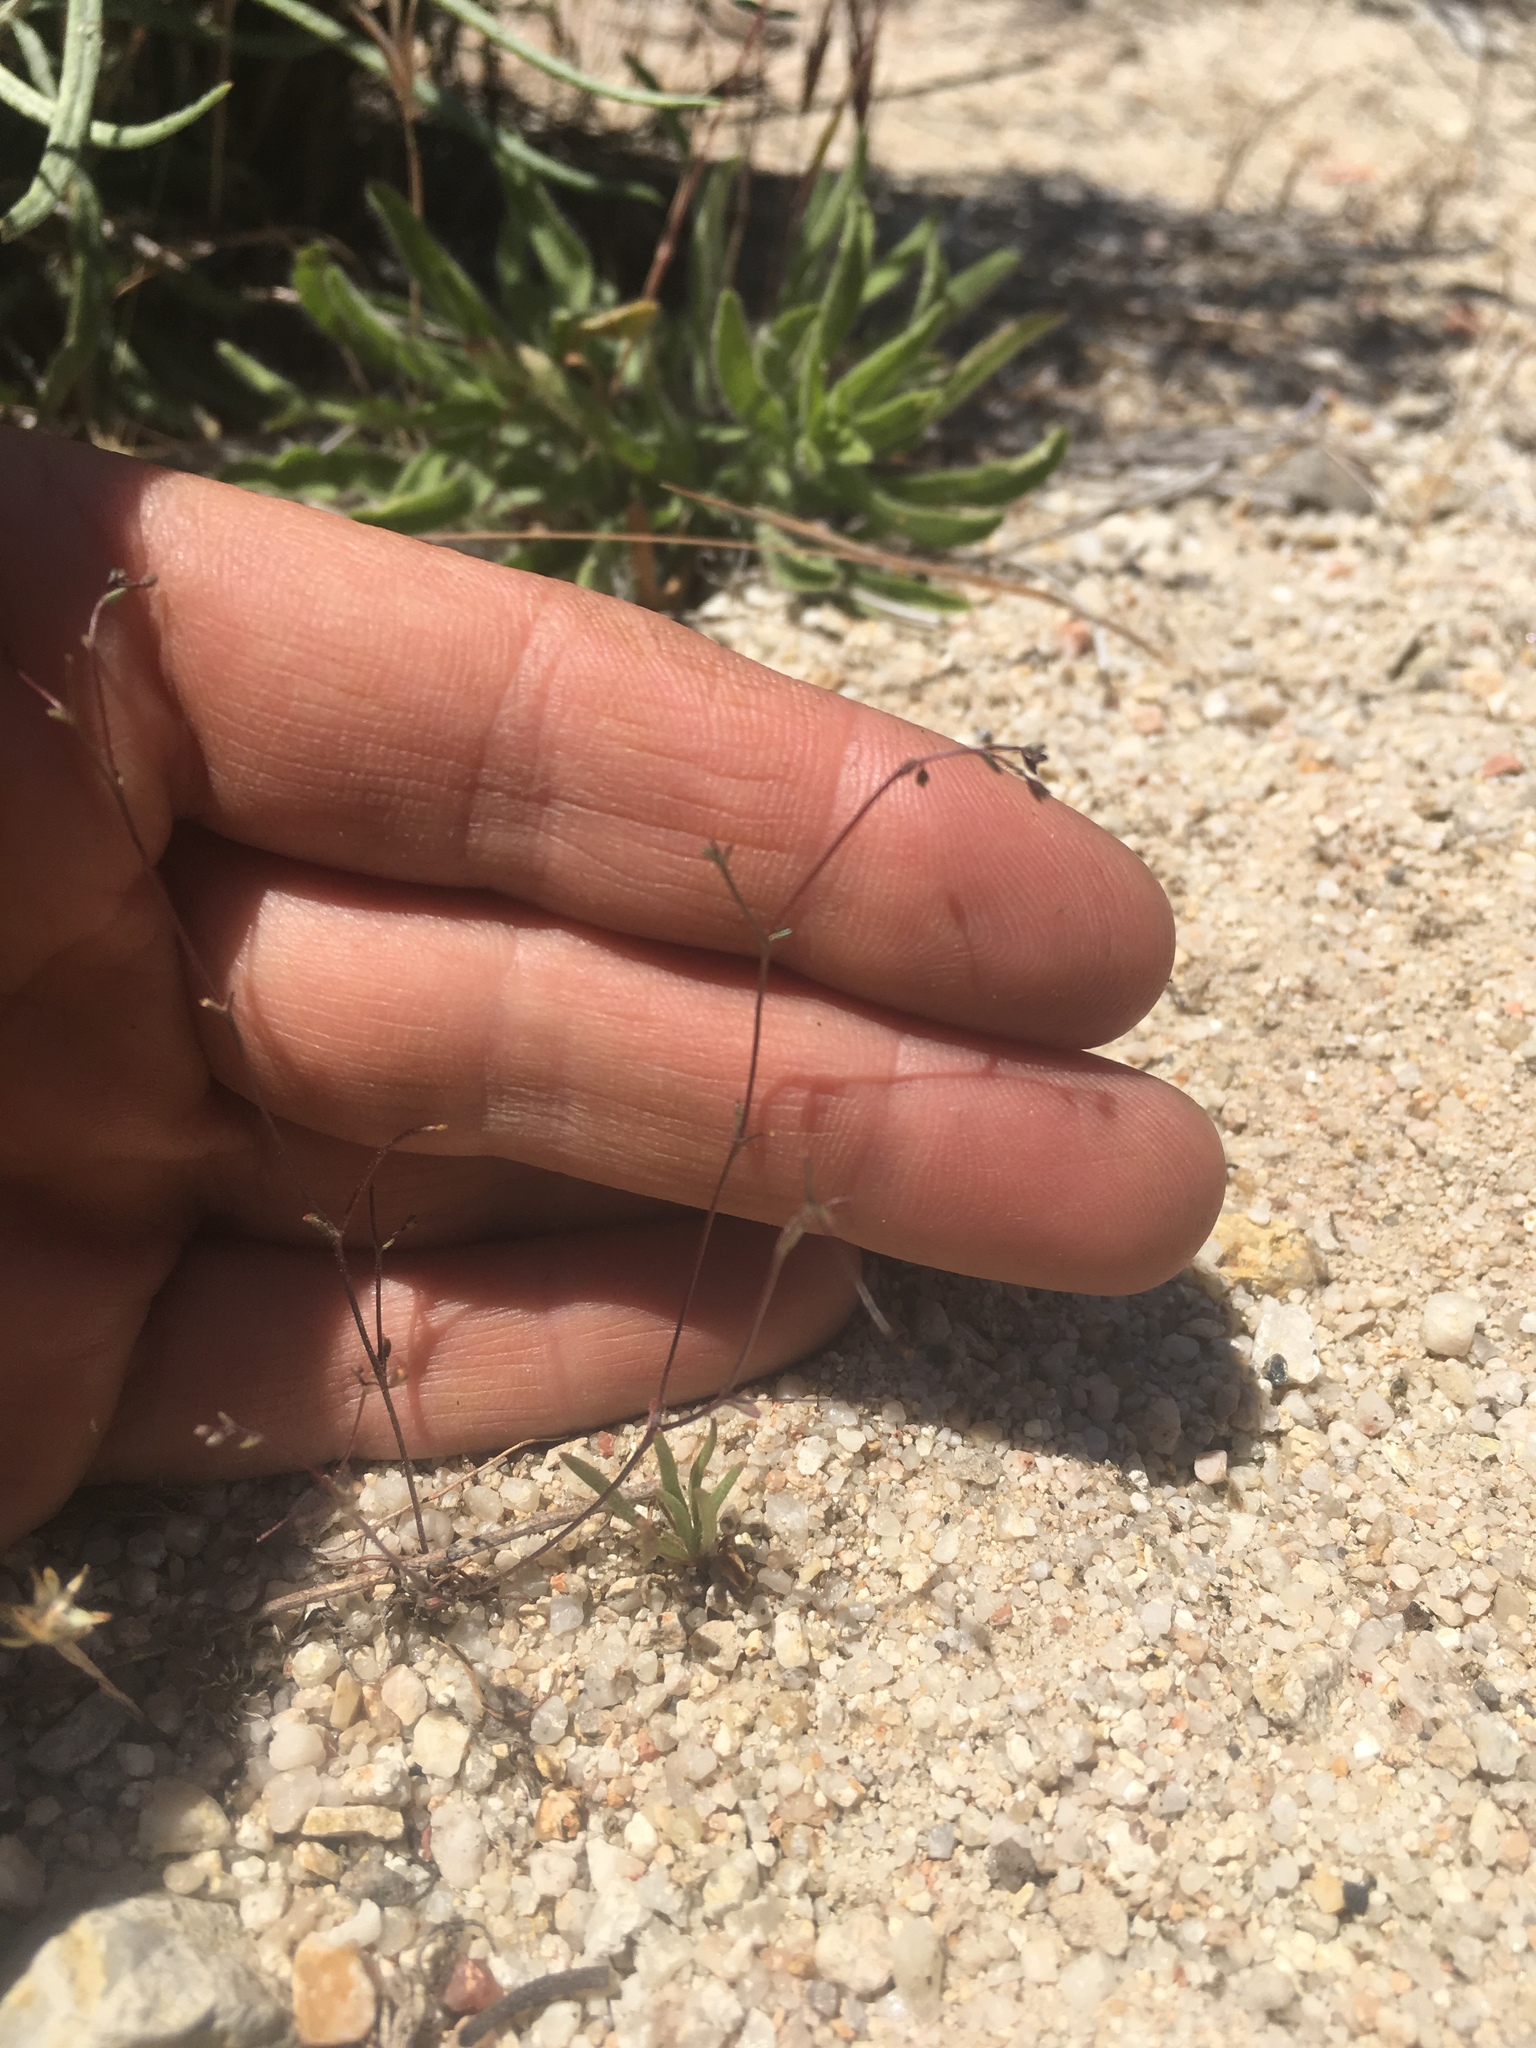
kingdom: Plantae
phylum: Tracheophyta
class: Magnoliopsida
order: Asterales
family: Campanulaceae
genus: Nemacladus
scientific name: Nemacladus secundiflorus
